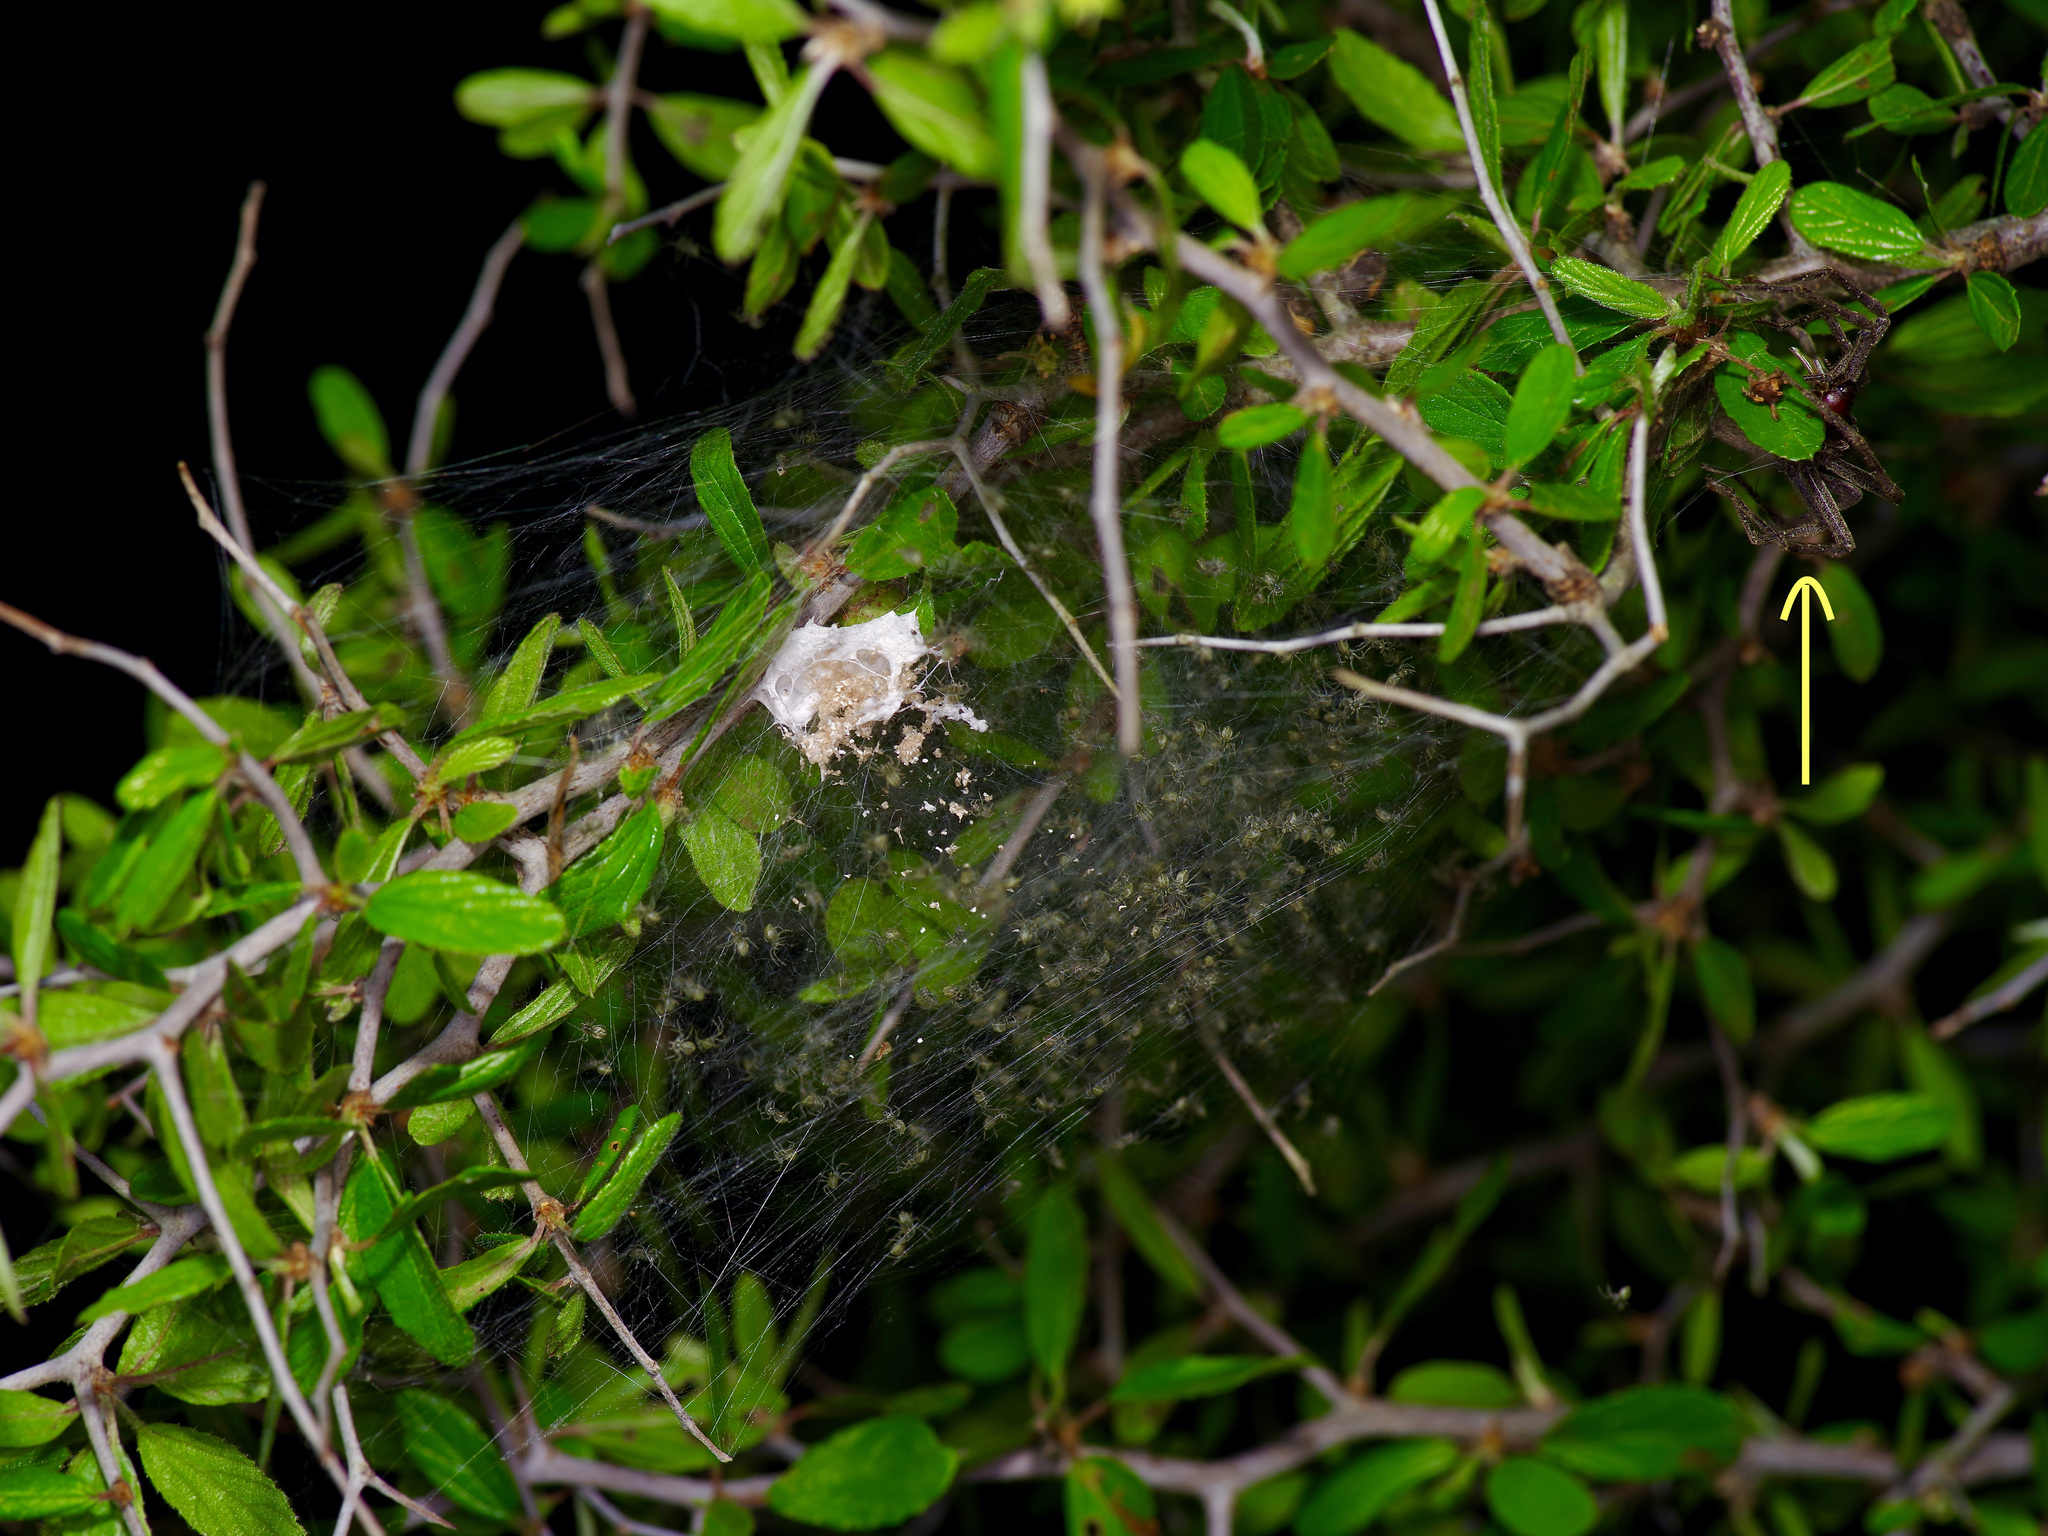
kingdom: Animalia
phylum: Arthropoda
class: Arachnida
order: Araneae
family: Pisauridae
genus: Pisaurina
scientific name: Pisaurina mira
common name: American nursery web spider
